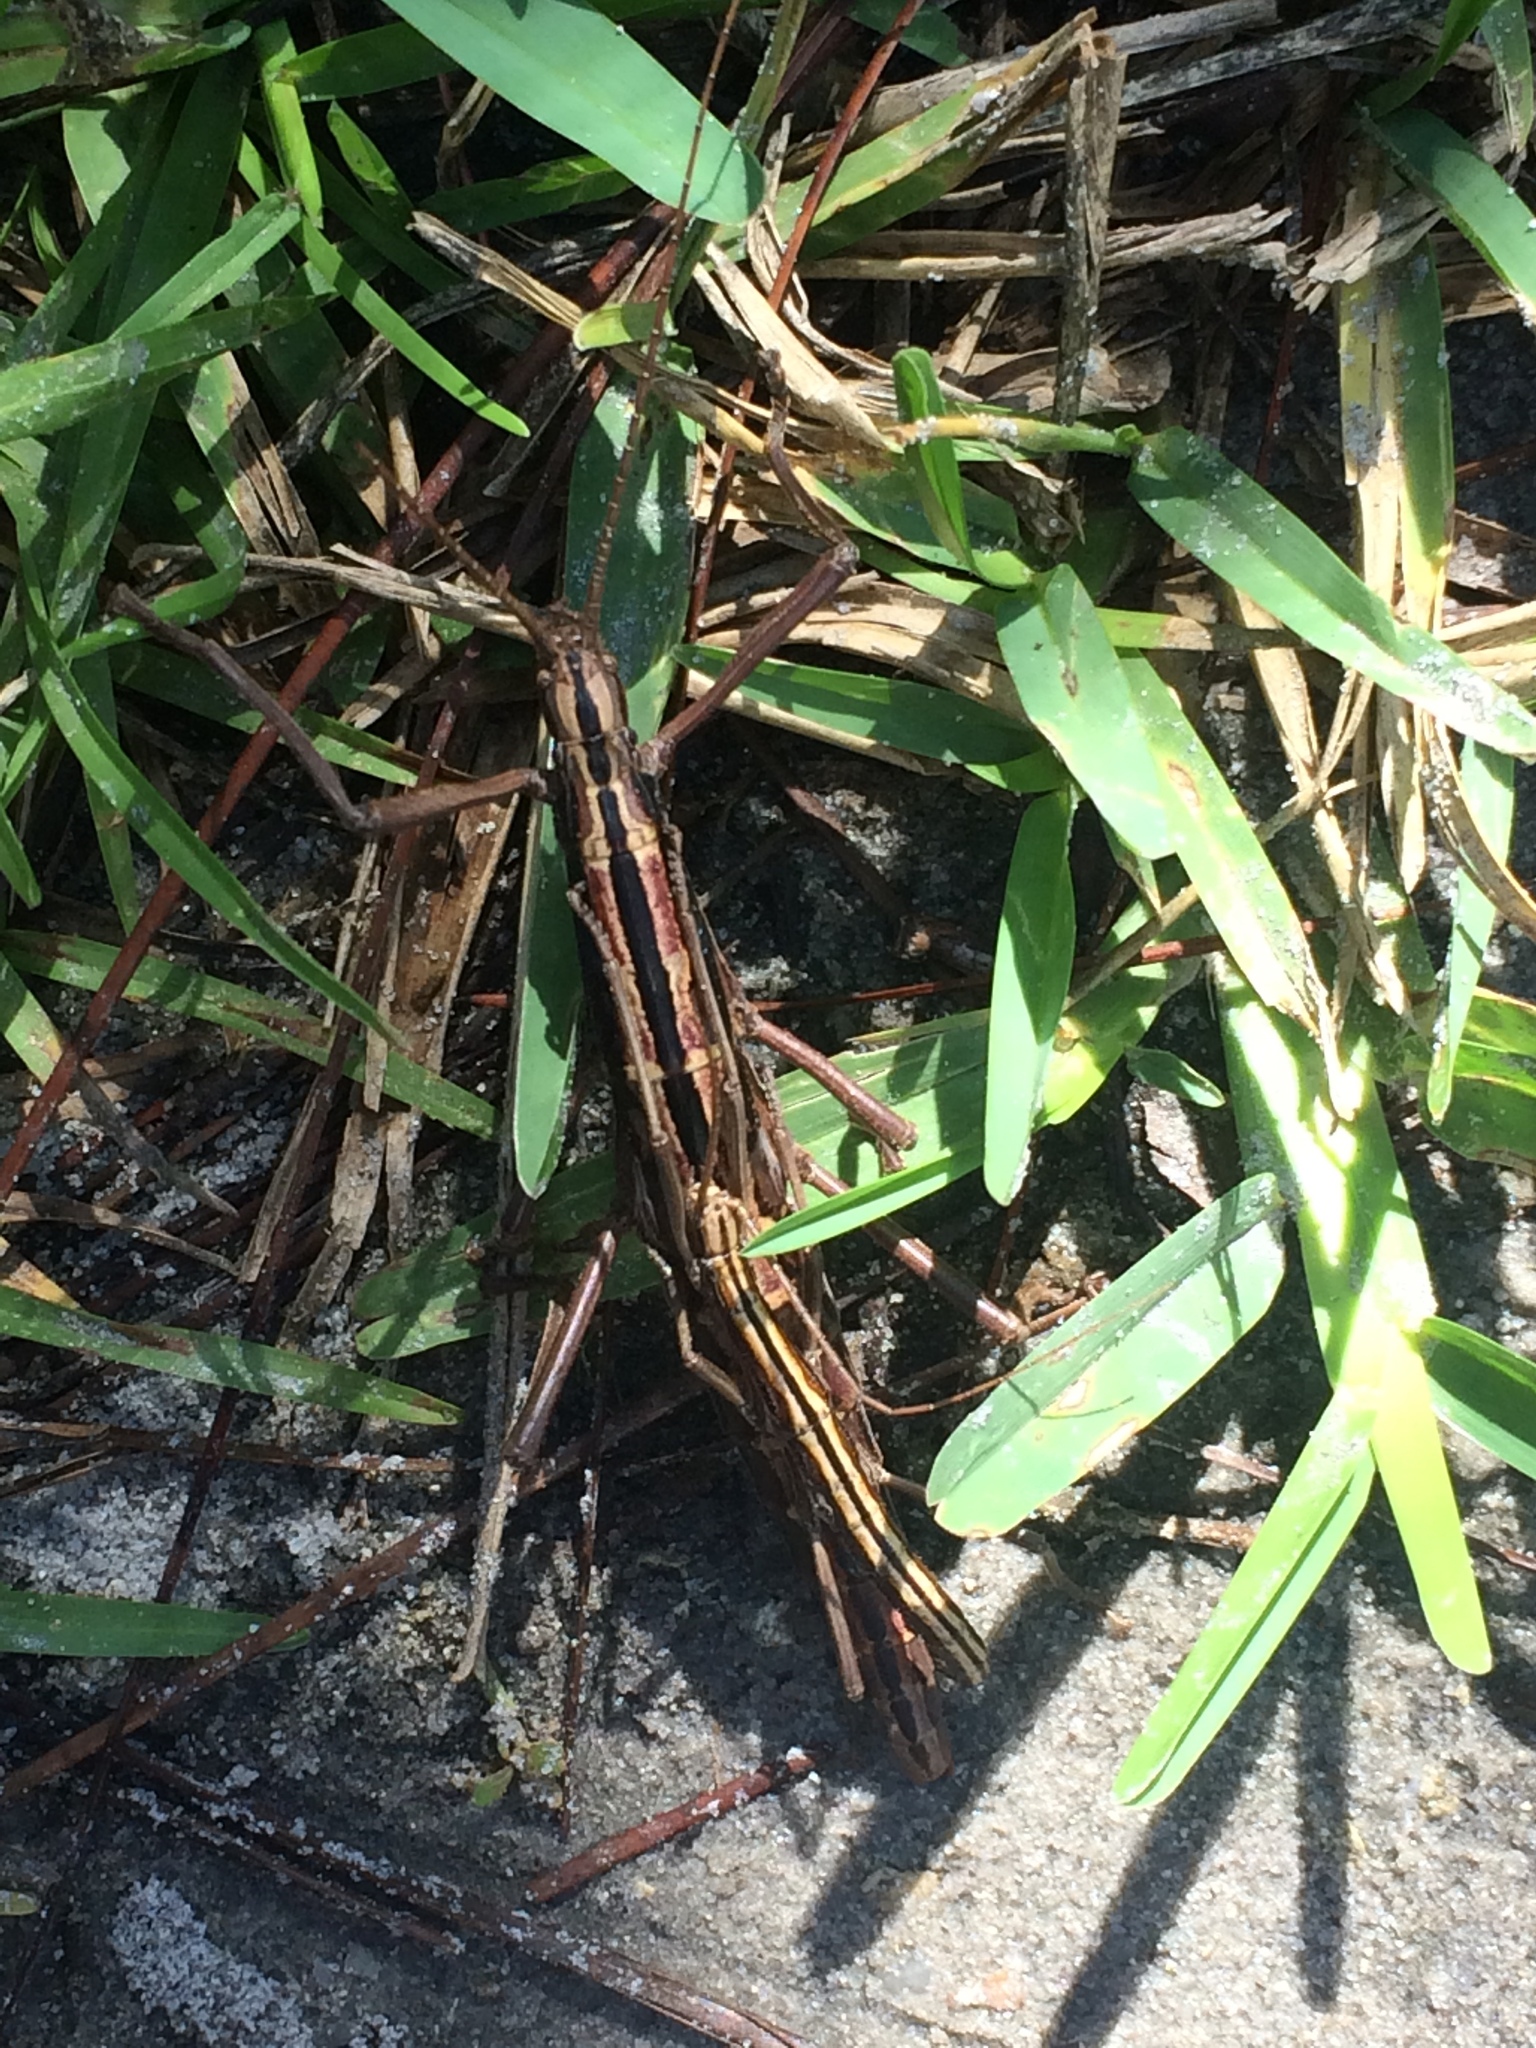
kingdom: Animalia
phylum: Arthropoda
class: Insecta
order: Phasmida
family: Pseudophasmatidae
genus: Anisomorpha
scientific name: Anisomorpha buprestoides
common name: Florida stick insect
